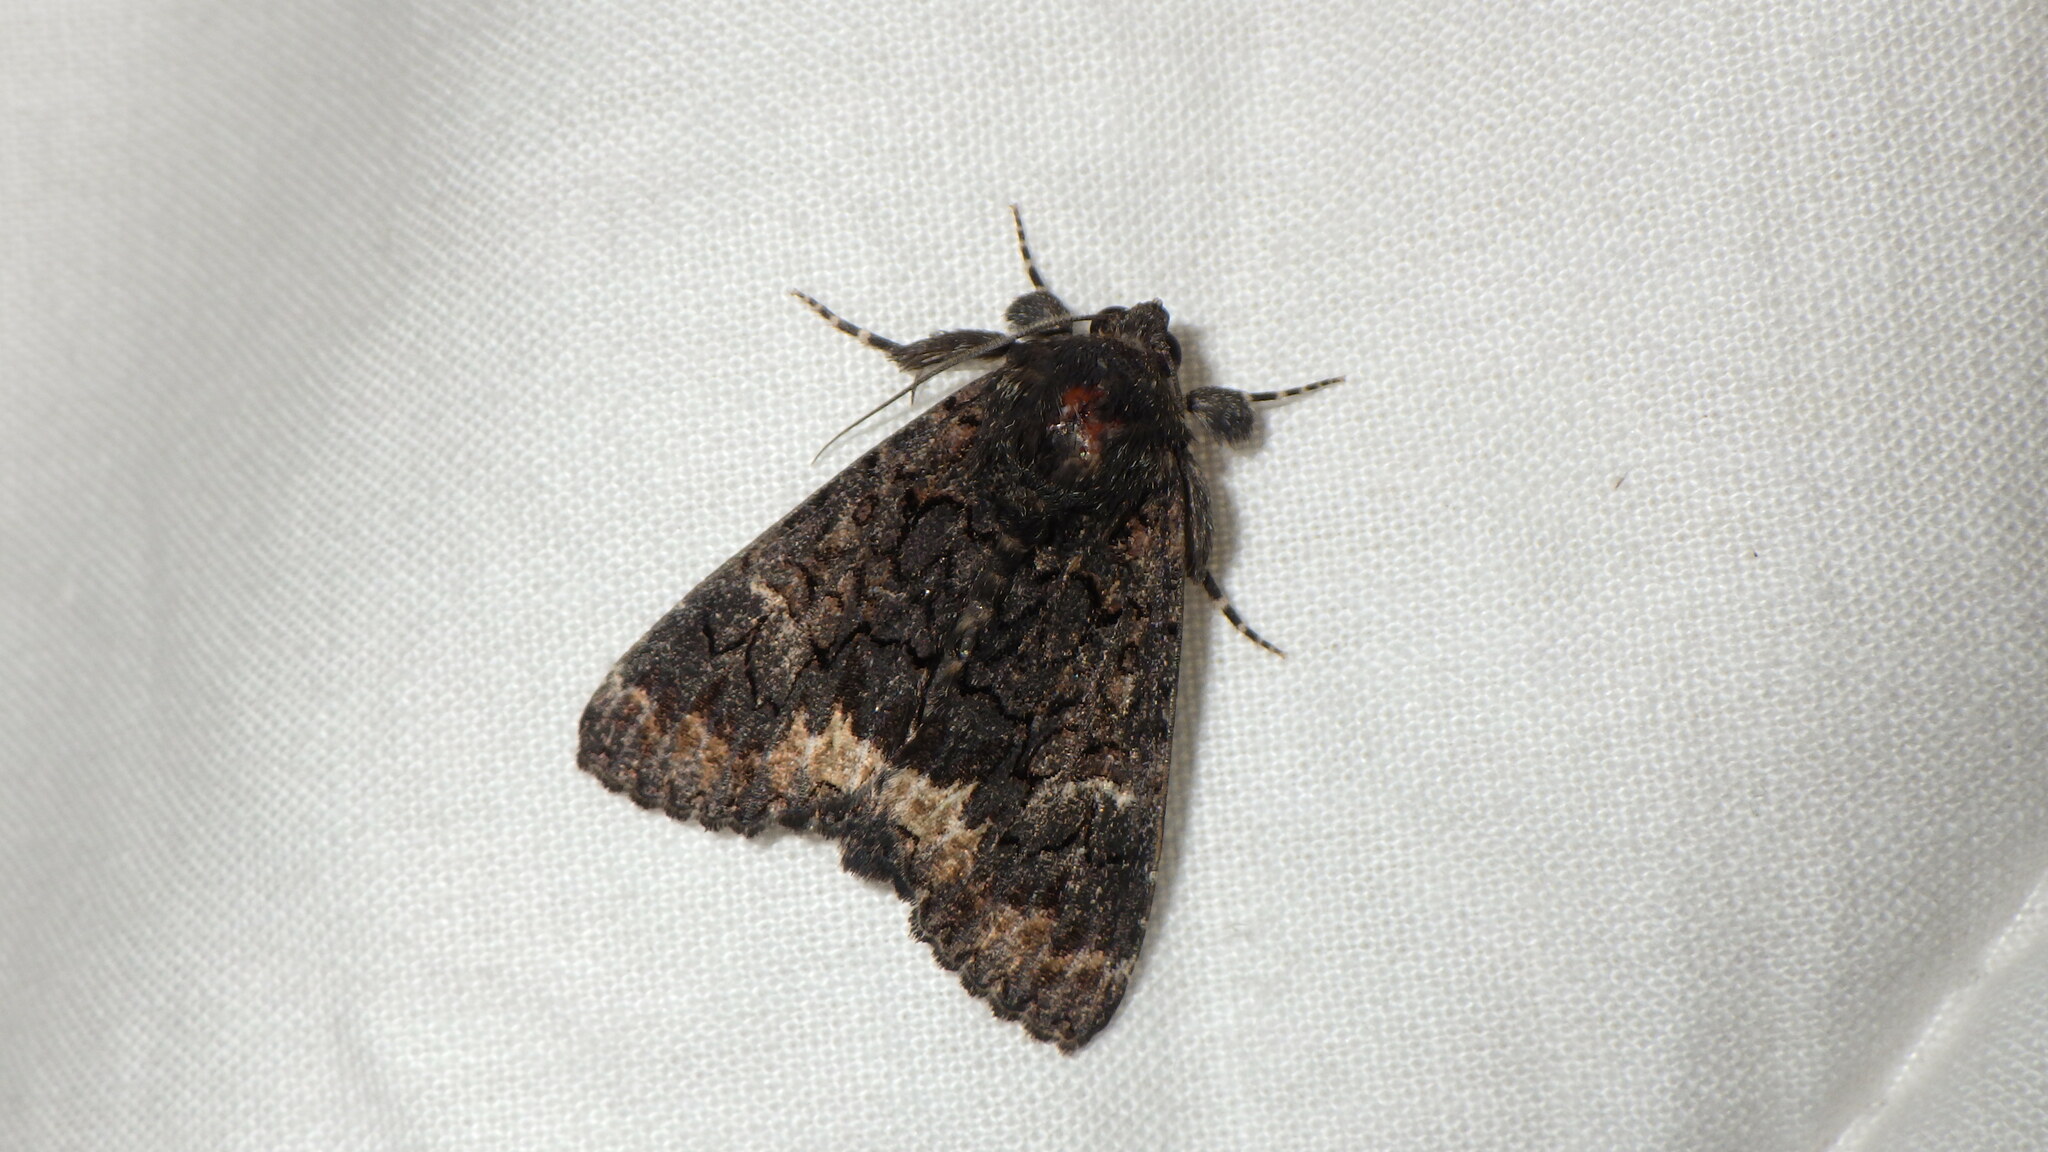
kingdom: Animalia
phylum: Arthropoda
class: Insecta
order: Lepidoptera
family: Erebidae
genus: Catephia
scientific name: Catephia alchymista
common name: Alchymist
